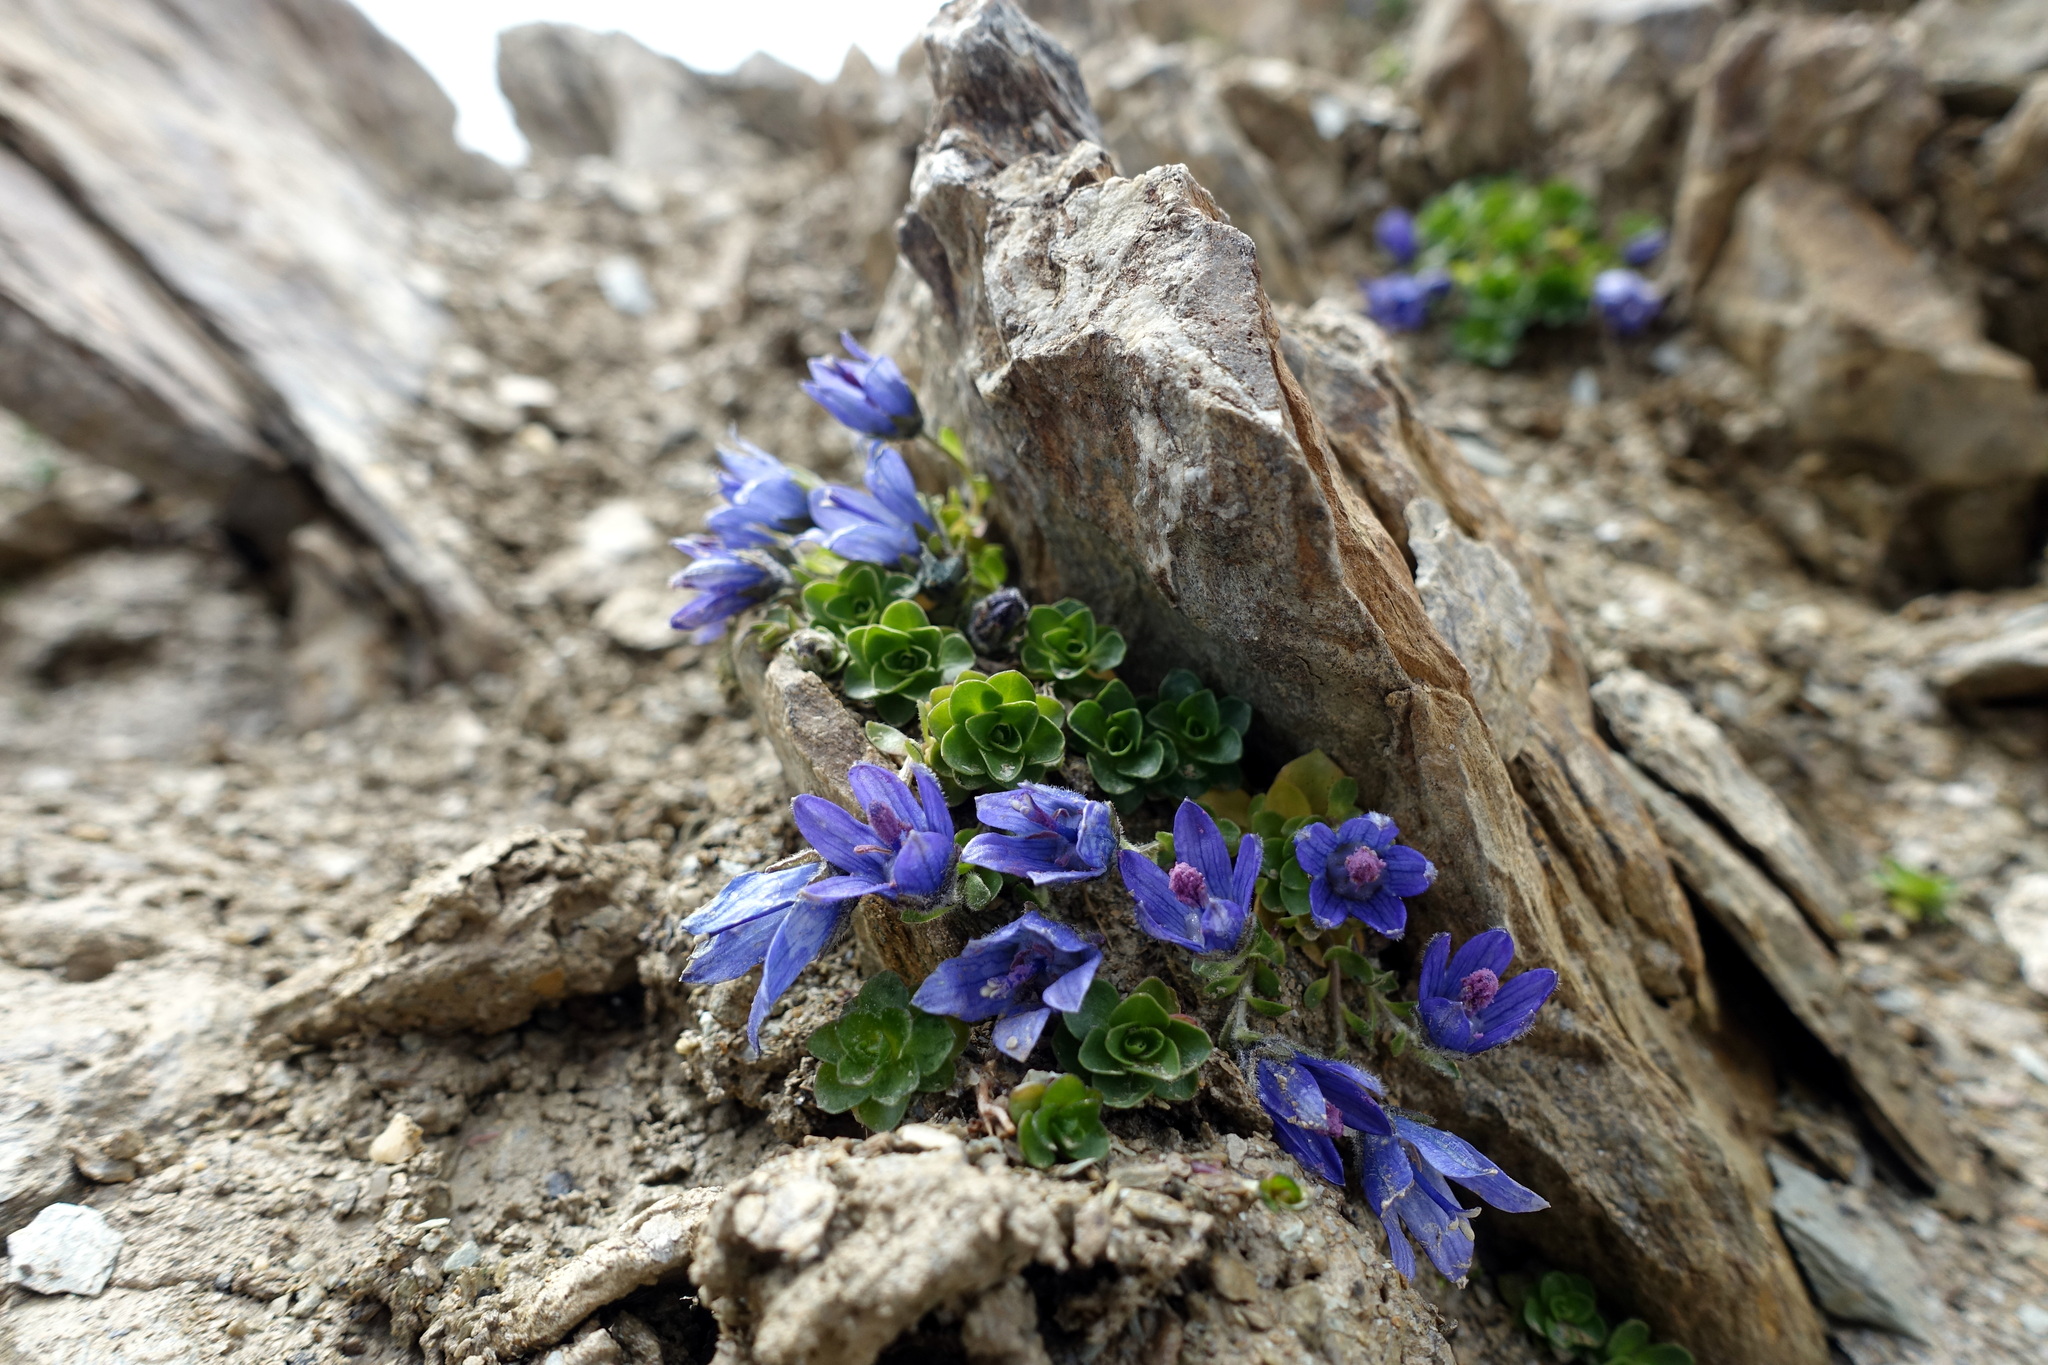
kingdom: Plantae
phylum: Tracheophyta
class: Magnoliopsida
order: Asterales
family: Campanulaceae
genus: Campanula
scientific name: Campanula cenisia
